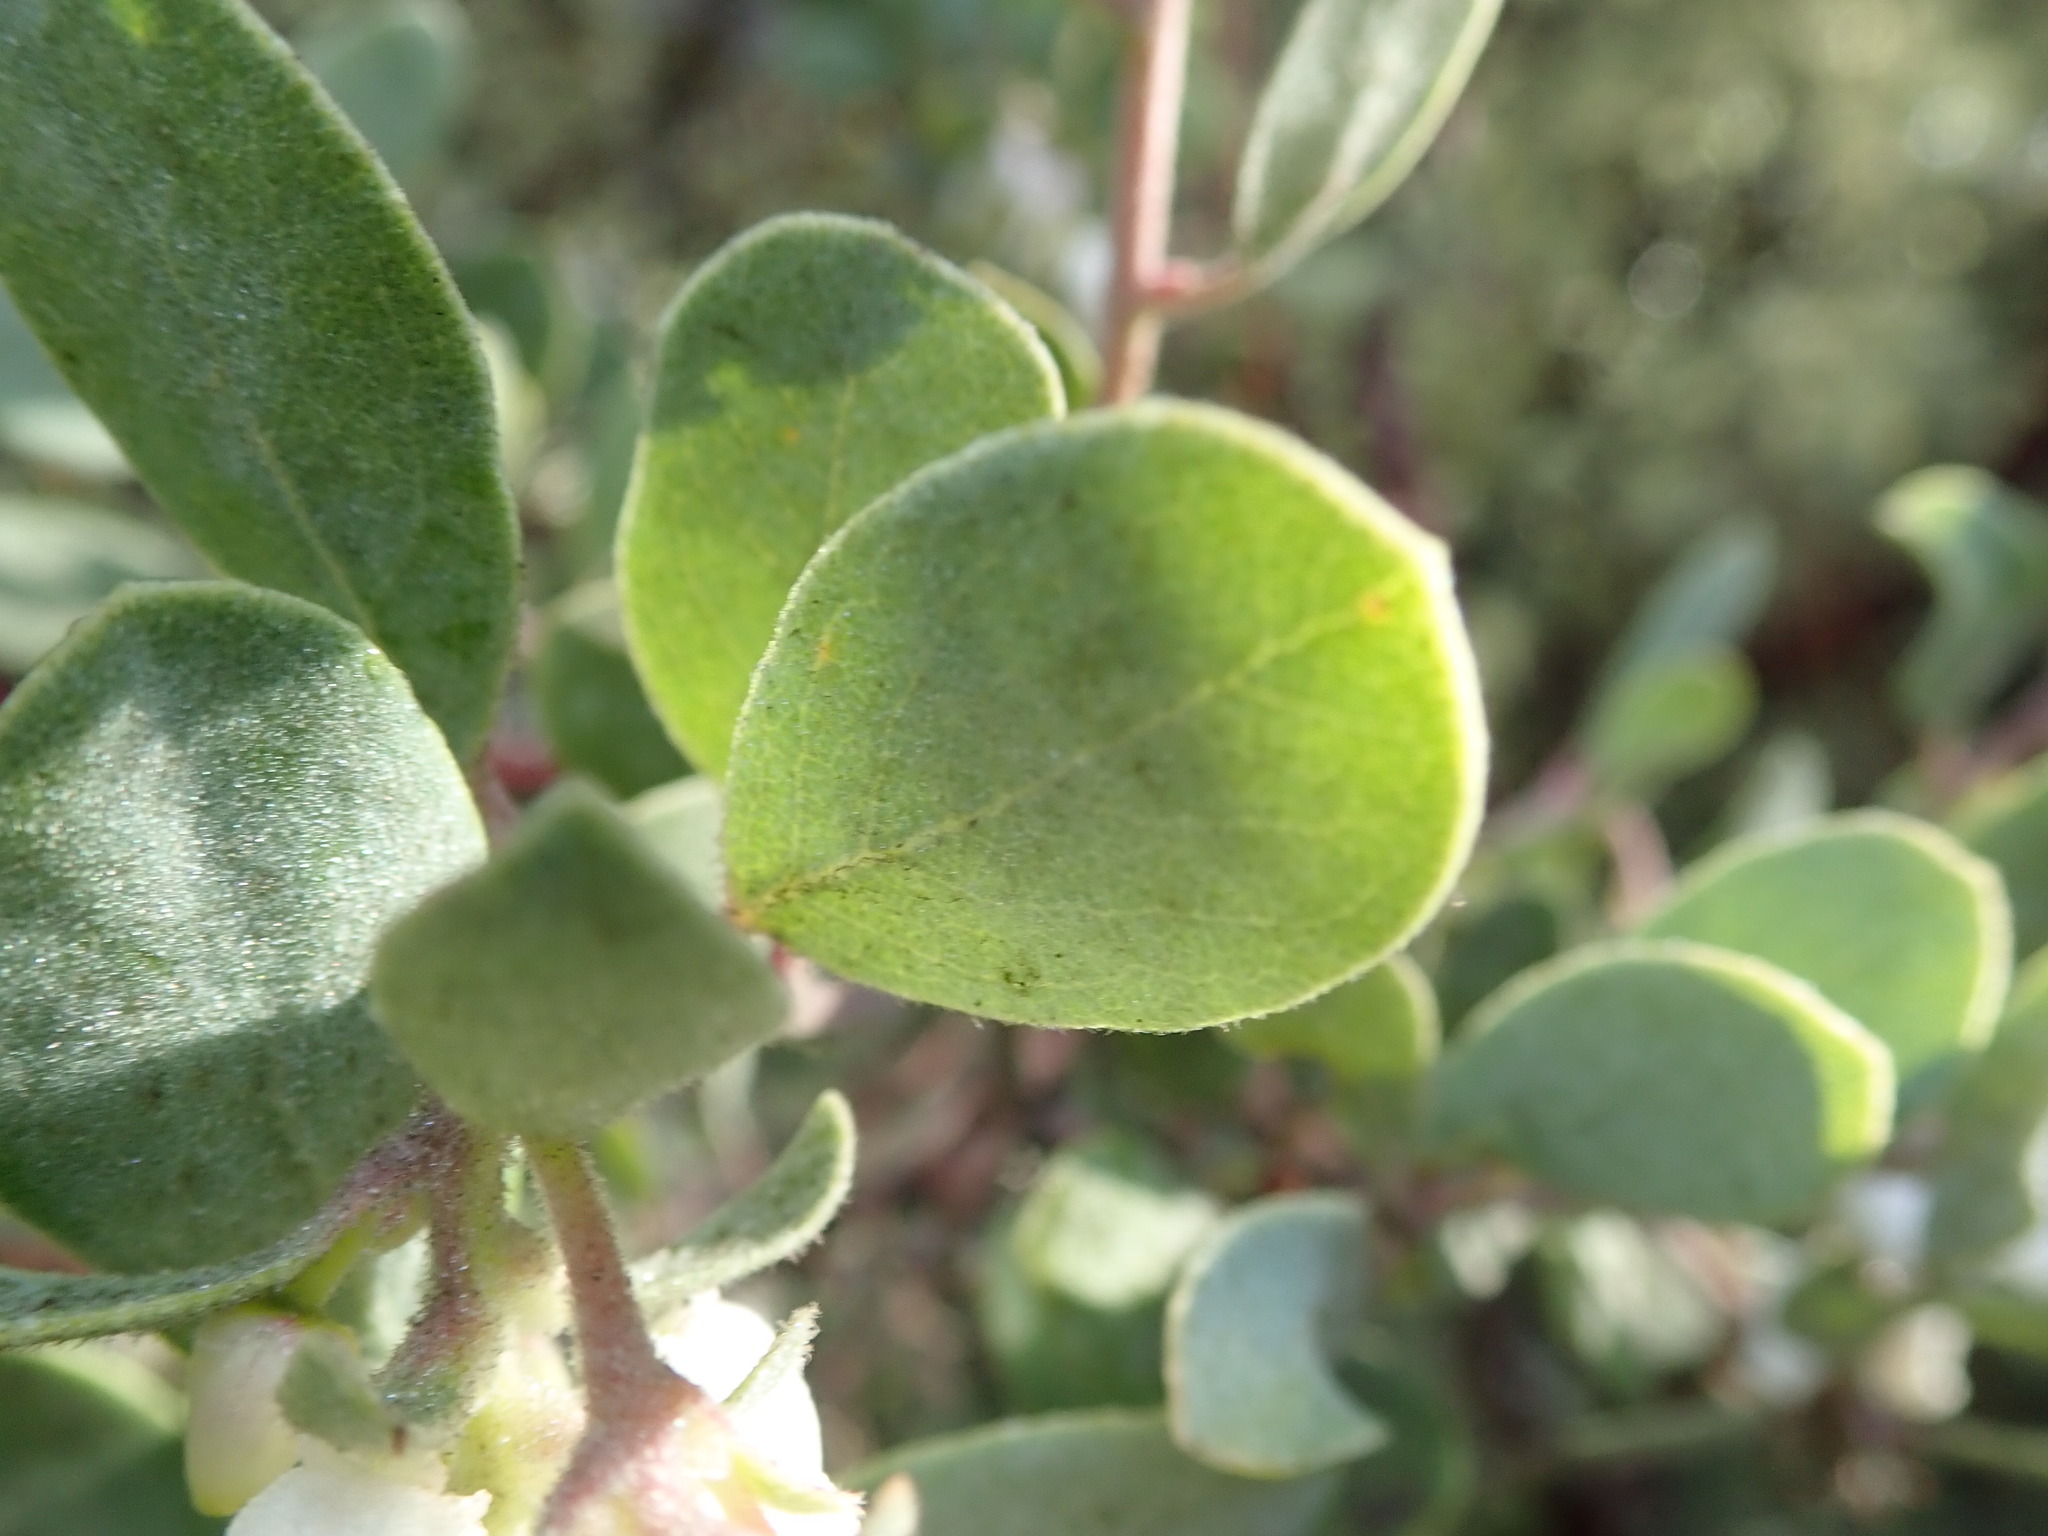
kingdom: Plantae
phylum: Tracheophyta
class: Magnoliopsida
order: Ericales
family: Ericaceae
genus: Arctostaphylos
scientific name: Arctostaphylos silvicola
